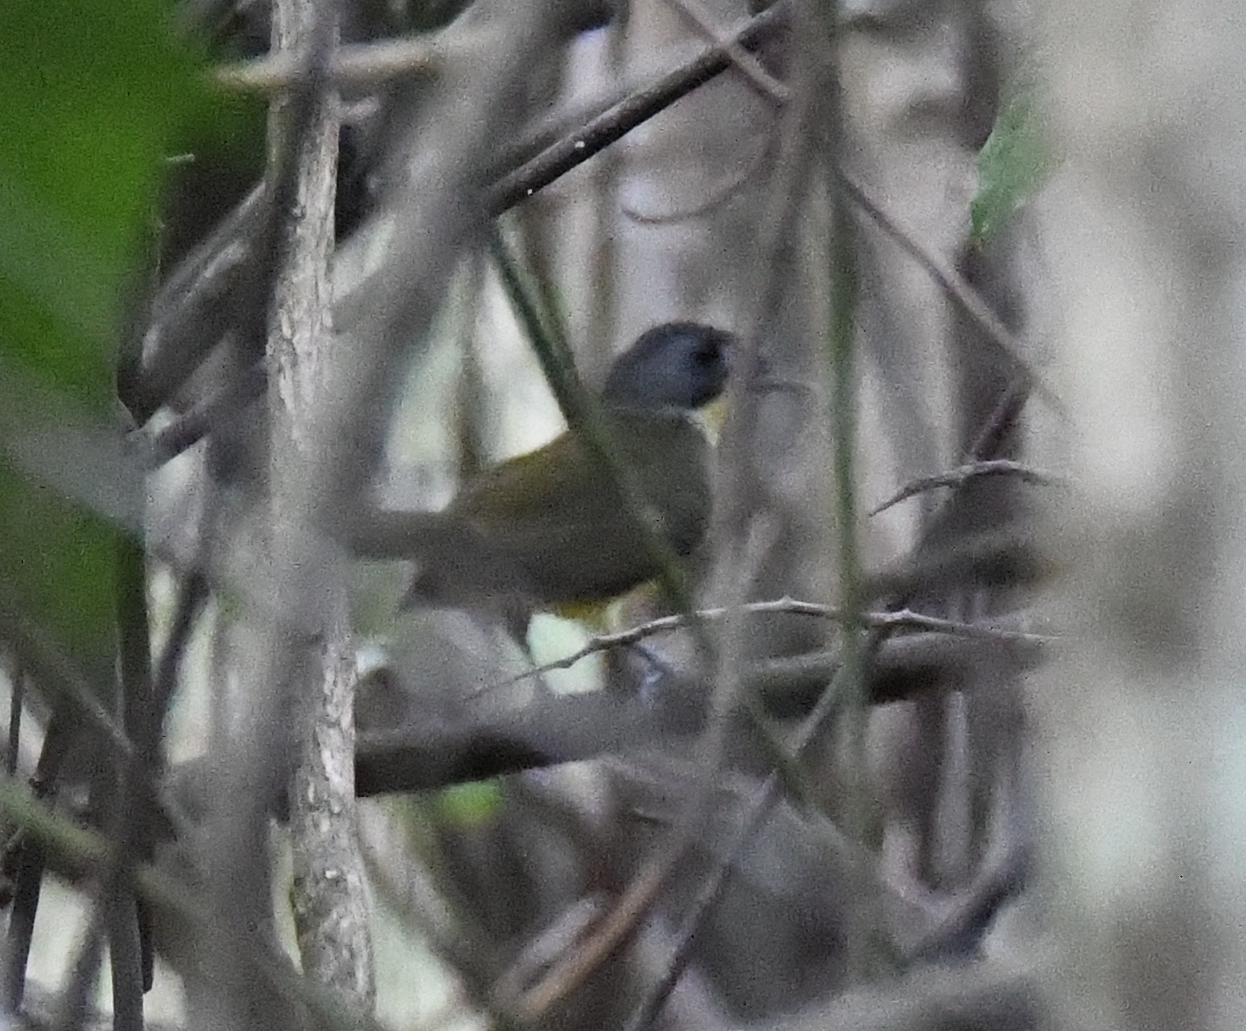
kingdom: Animalia
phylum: Chordata
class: Aves
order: Passeriformes
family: Pycnonotidae
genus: Bleda
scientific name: Bleda canicapillus
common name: Grey-headed bristlebill
